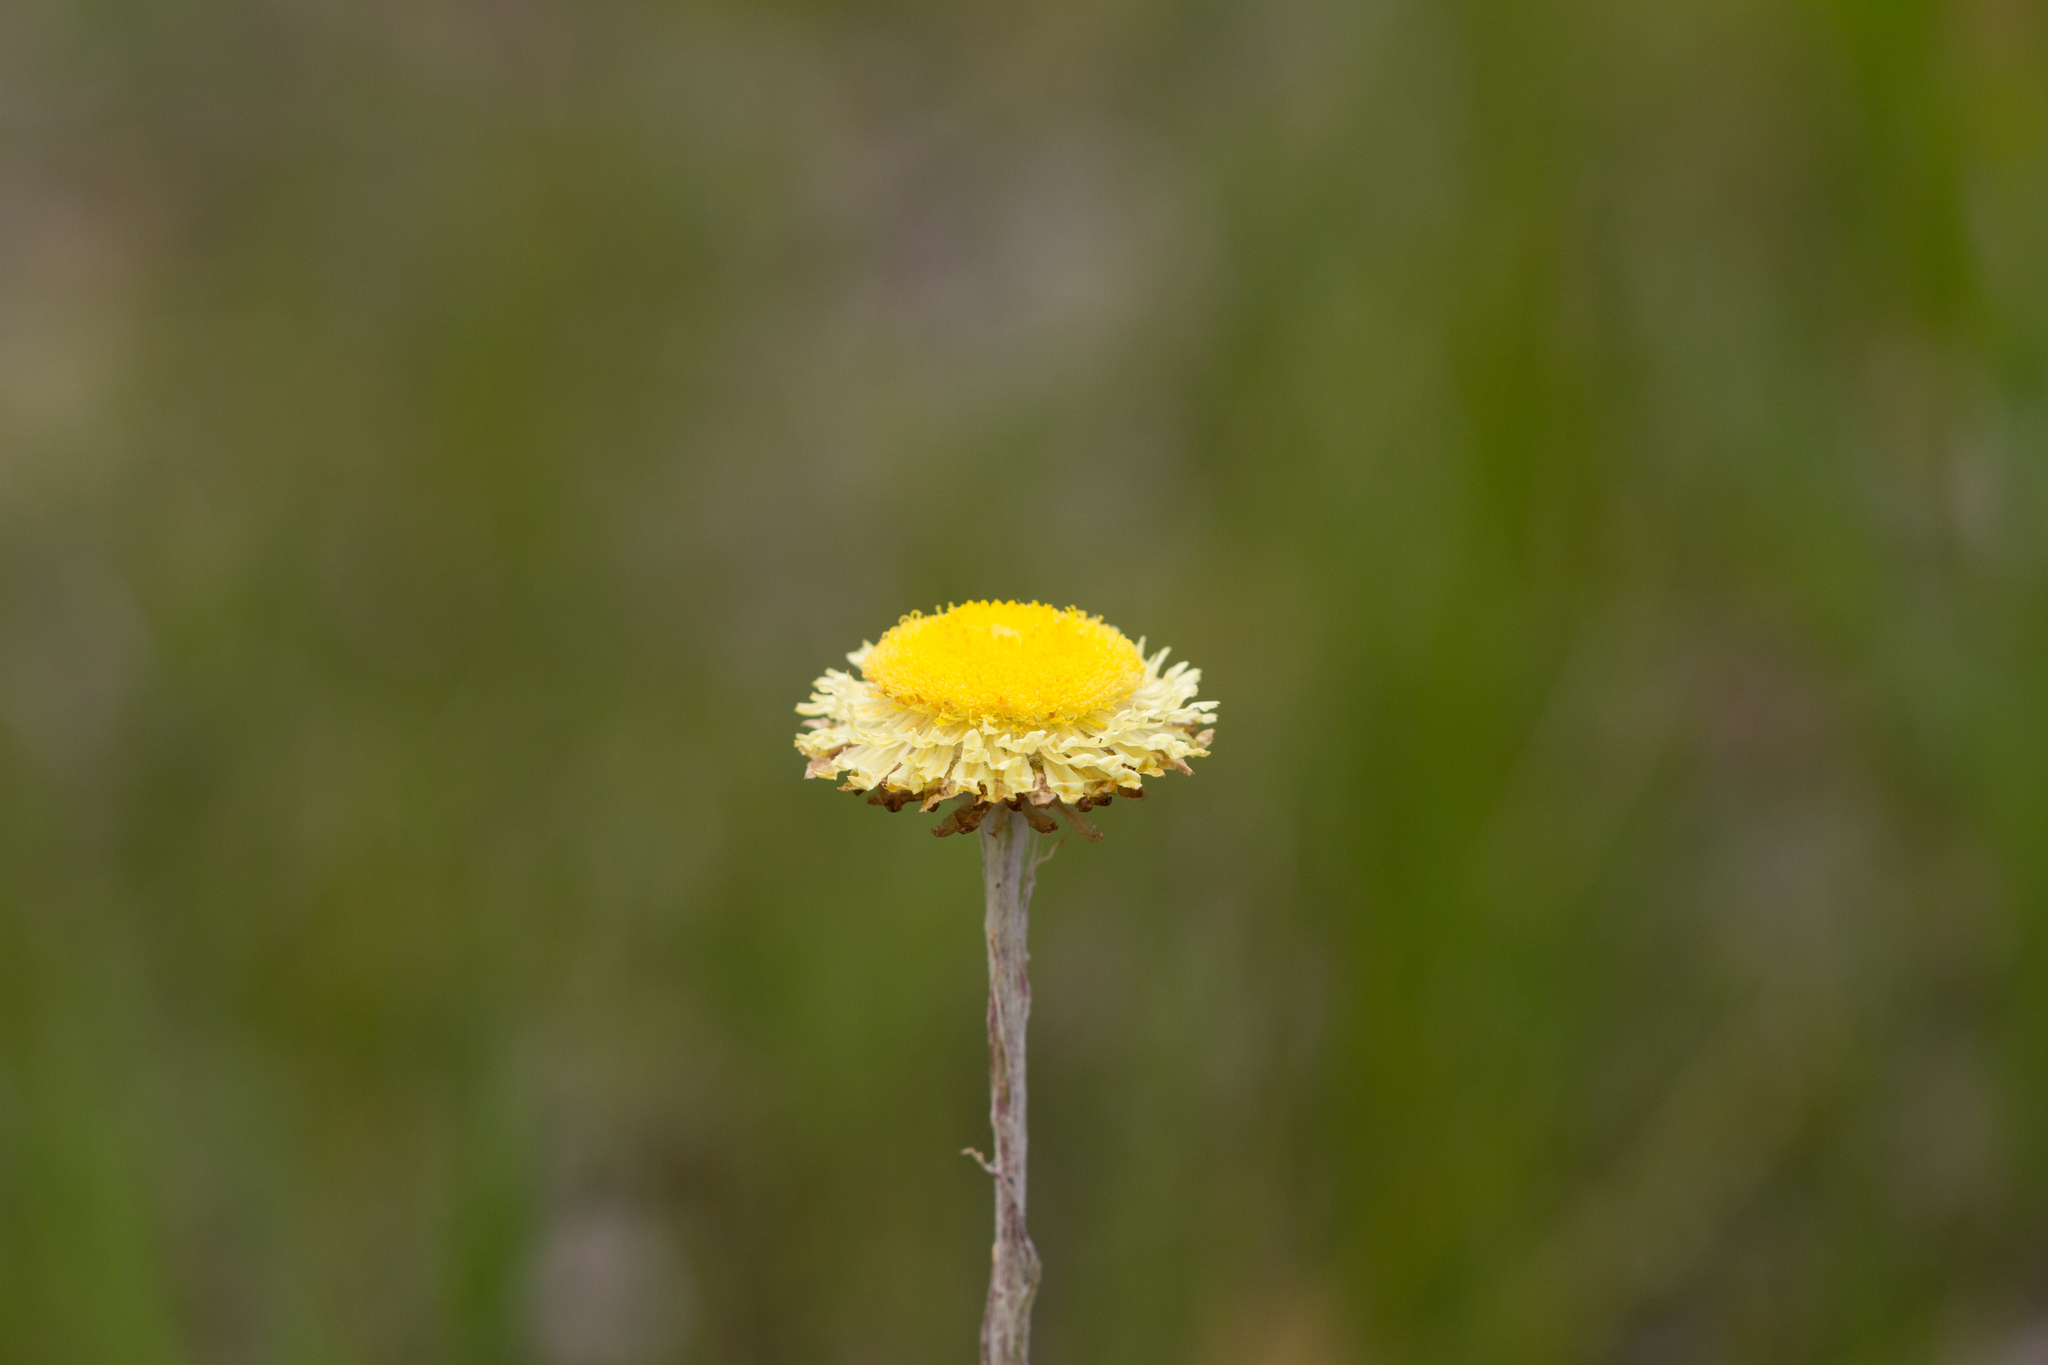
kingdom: Plantae
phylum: Tracheophyta
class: Magnoliopsida
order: Asterales
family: Asteraceae
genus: Coronidium
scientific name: Coronidium scorpioides
